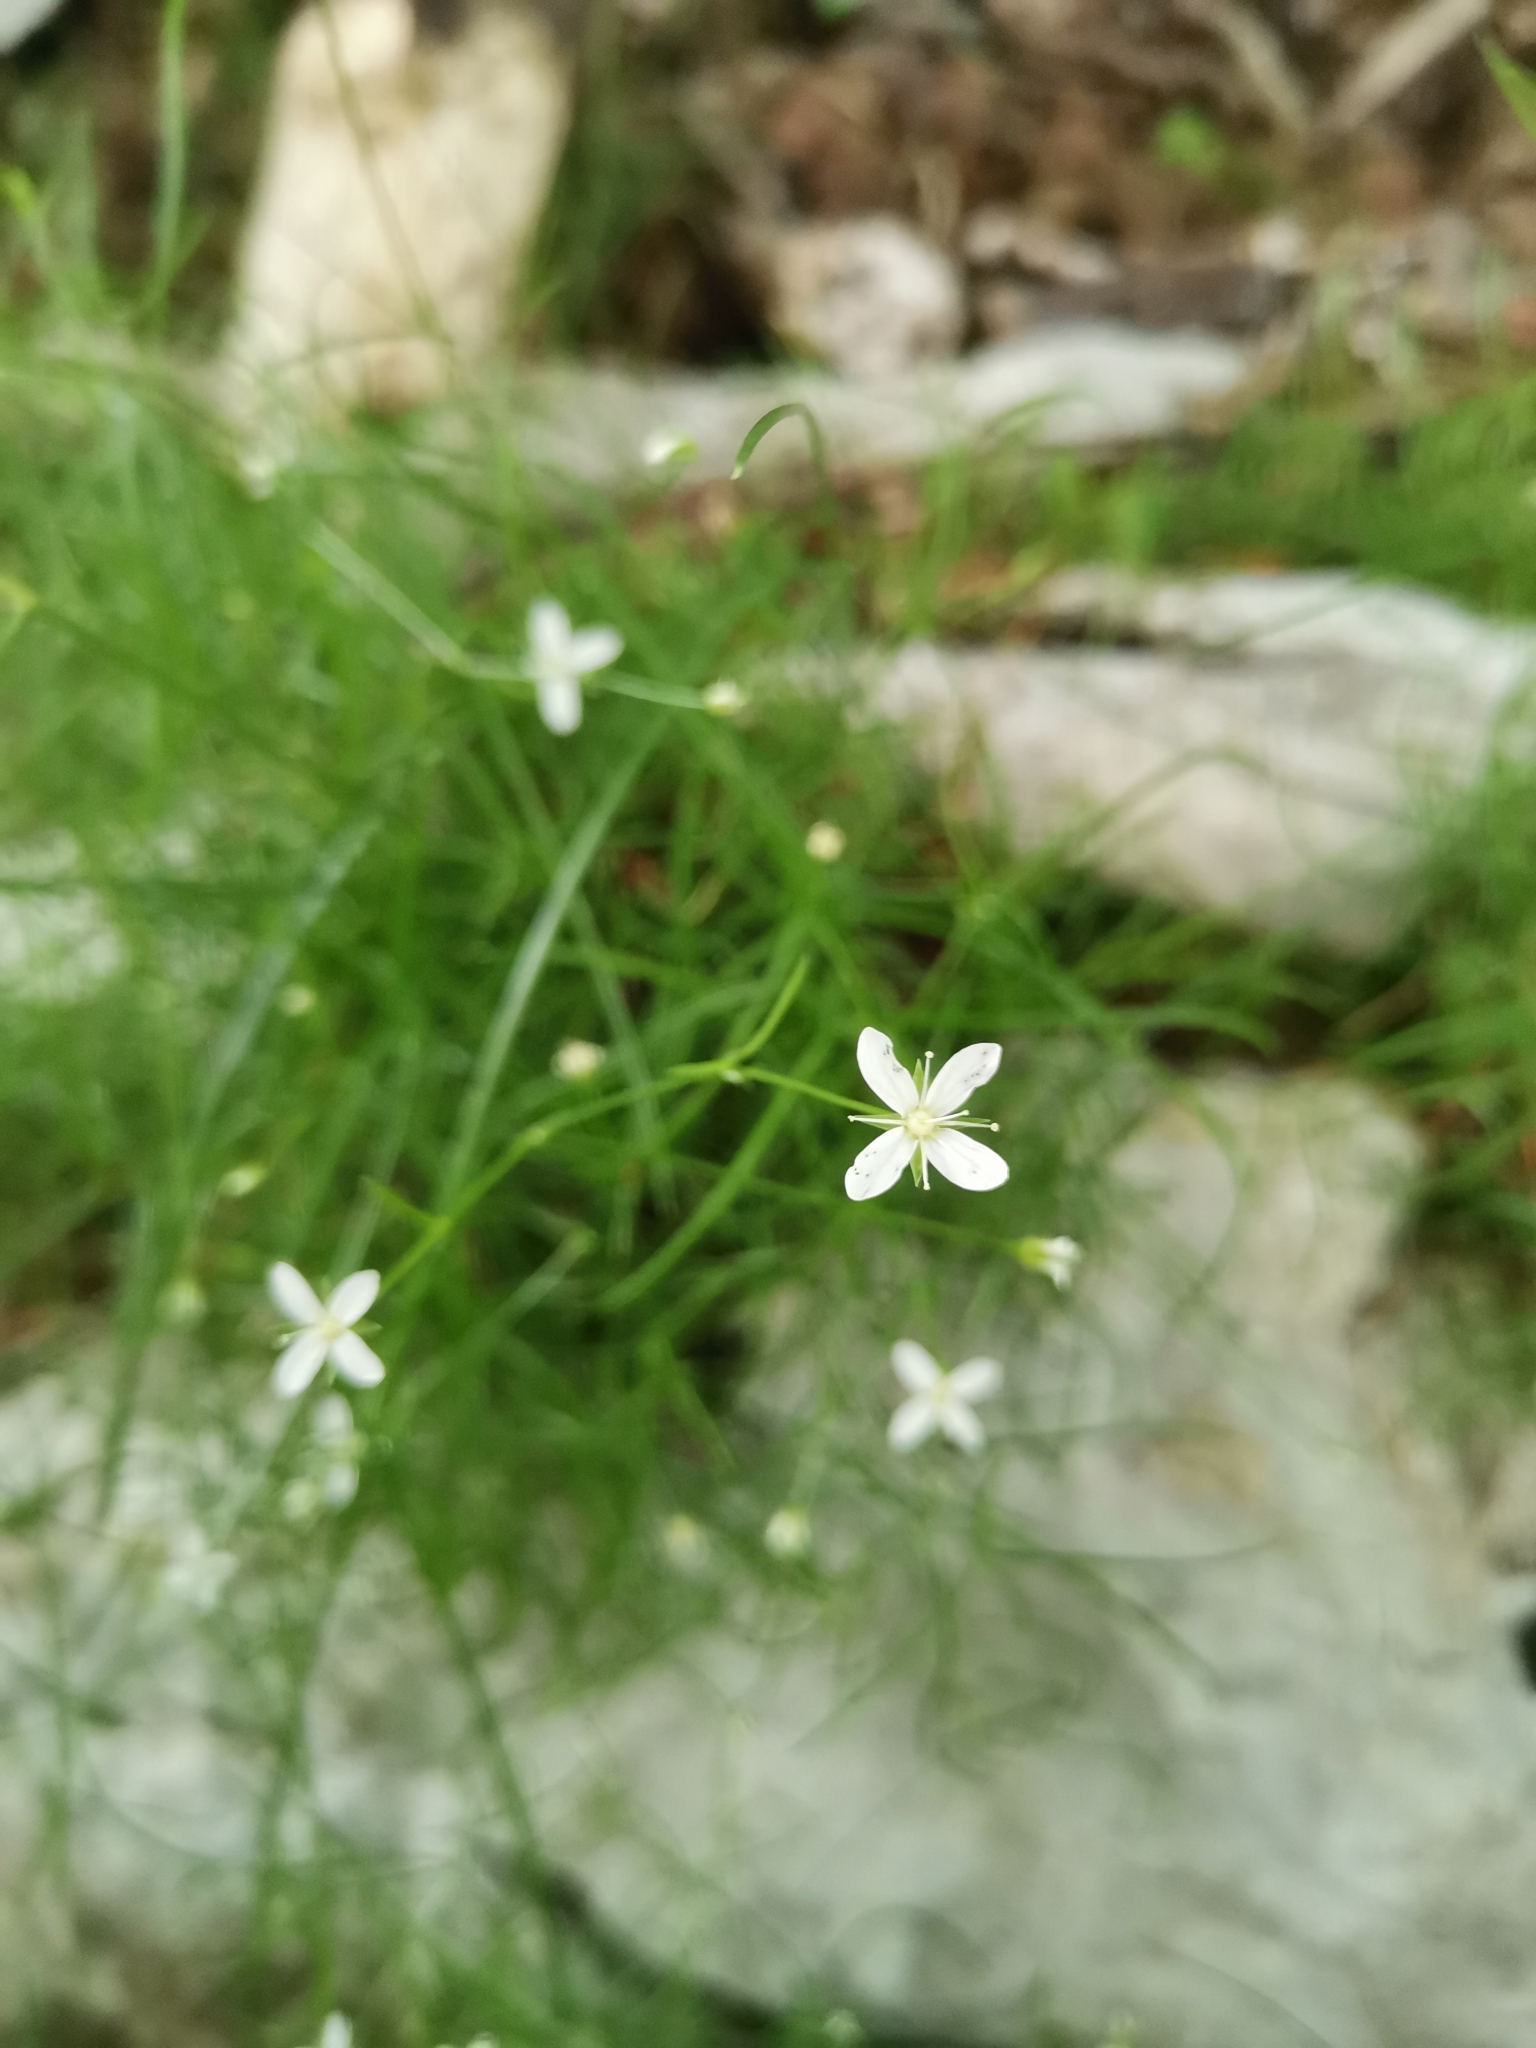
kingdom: Plantae
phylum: Tracheophyta
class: Magnoliopsida
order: Caryophyllales
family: Caryophyllaceae
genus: Moehringia
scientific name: Moehringia muscosa
